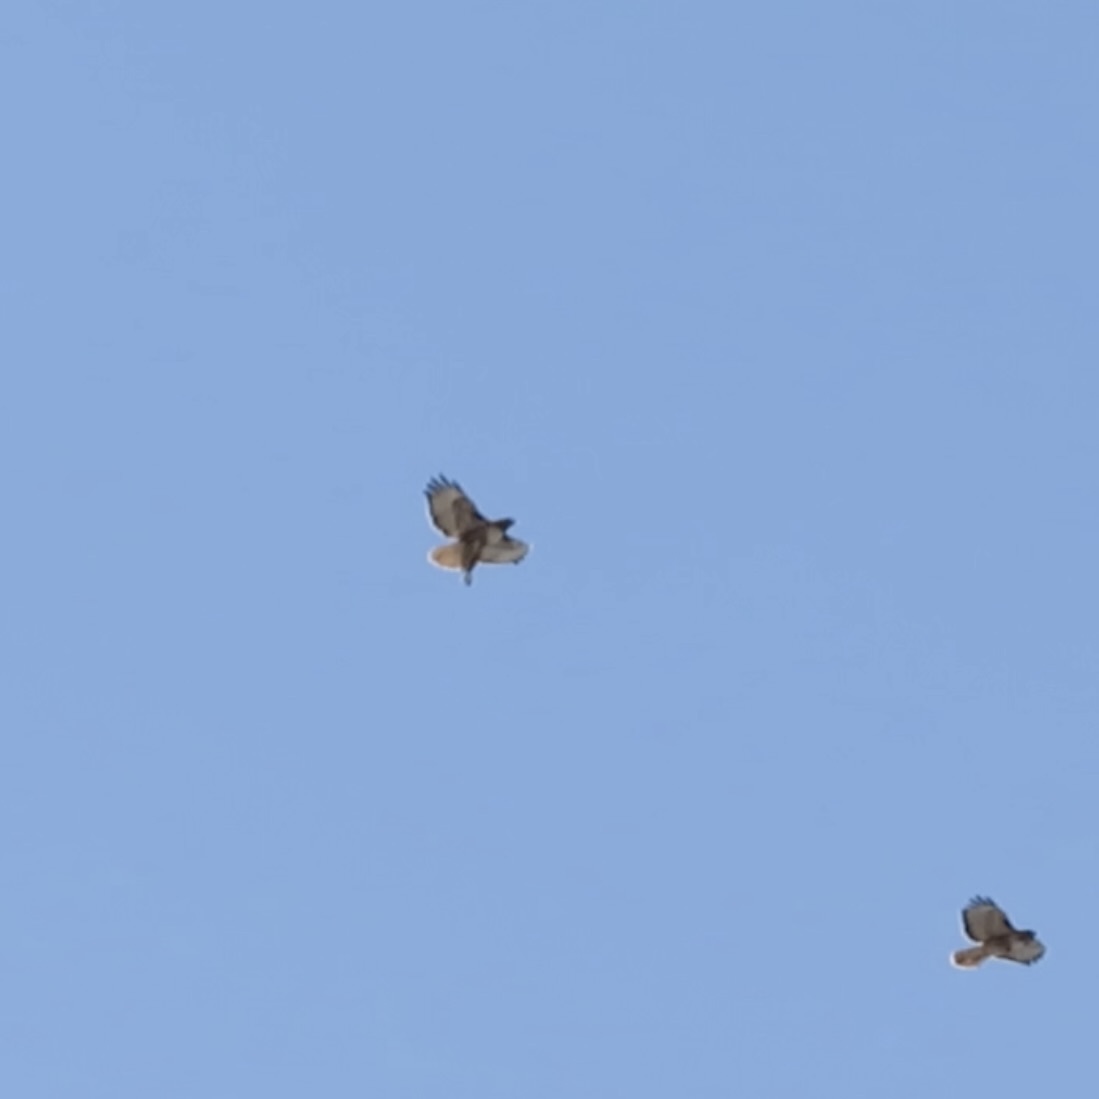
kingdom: Animalia
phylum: Chordata
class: Aves
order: Accipitriformes
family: Accipitridae
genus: Buteo
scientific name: Buteo jamaicensis
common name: Red-tailed hawk
